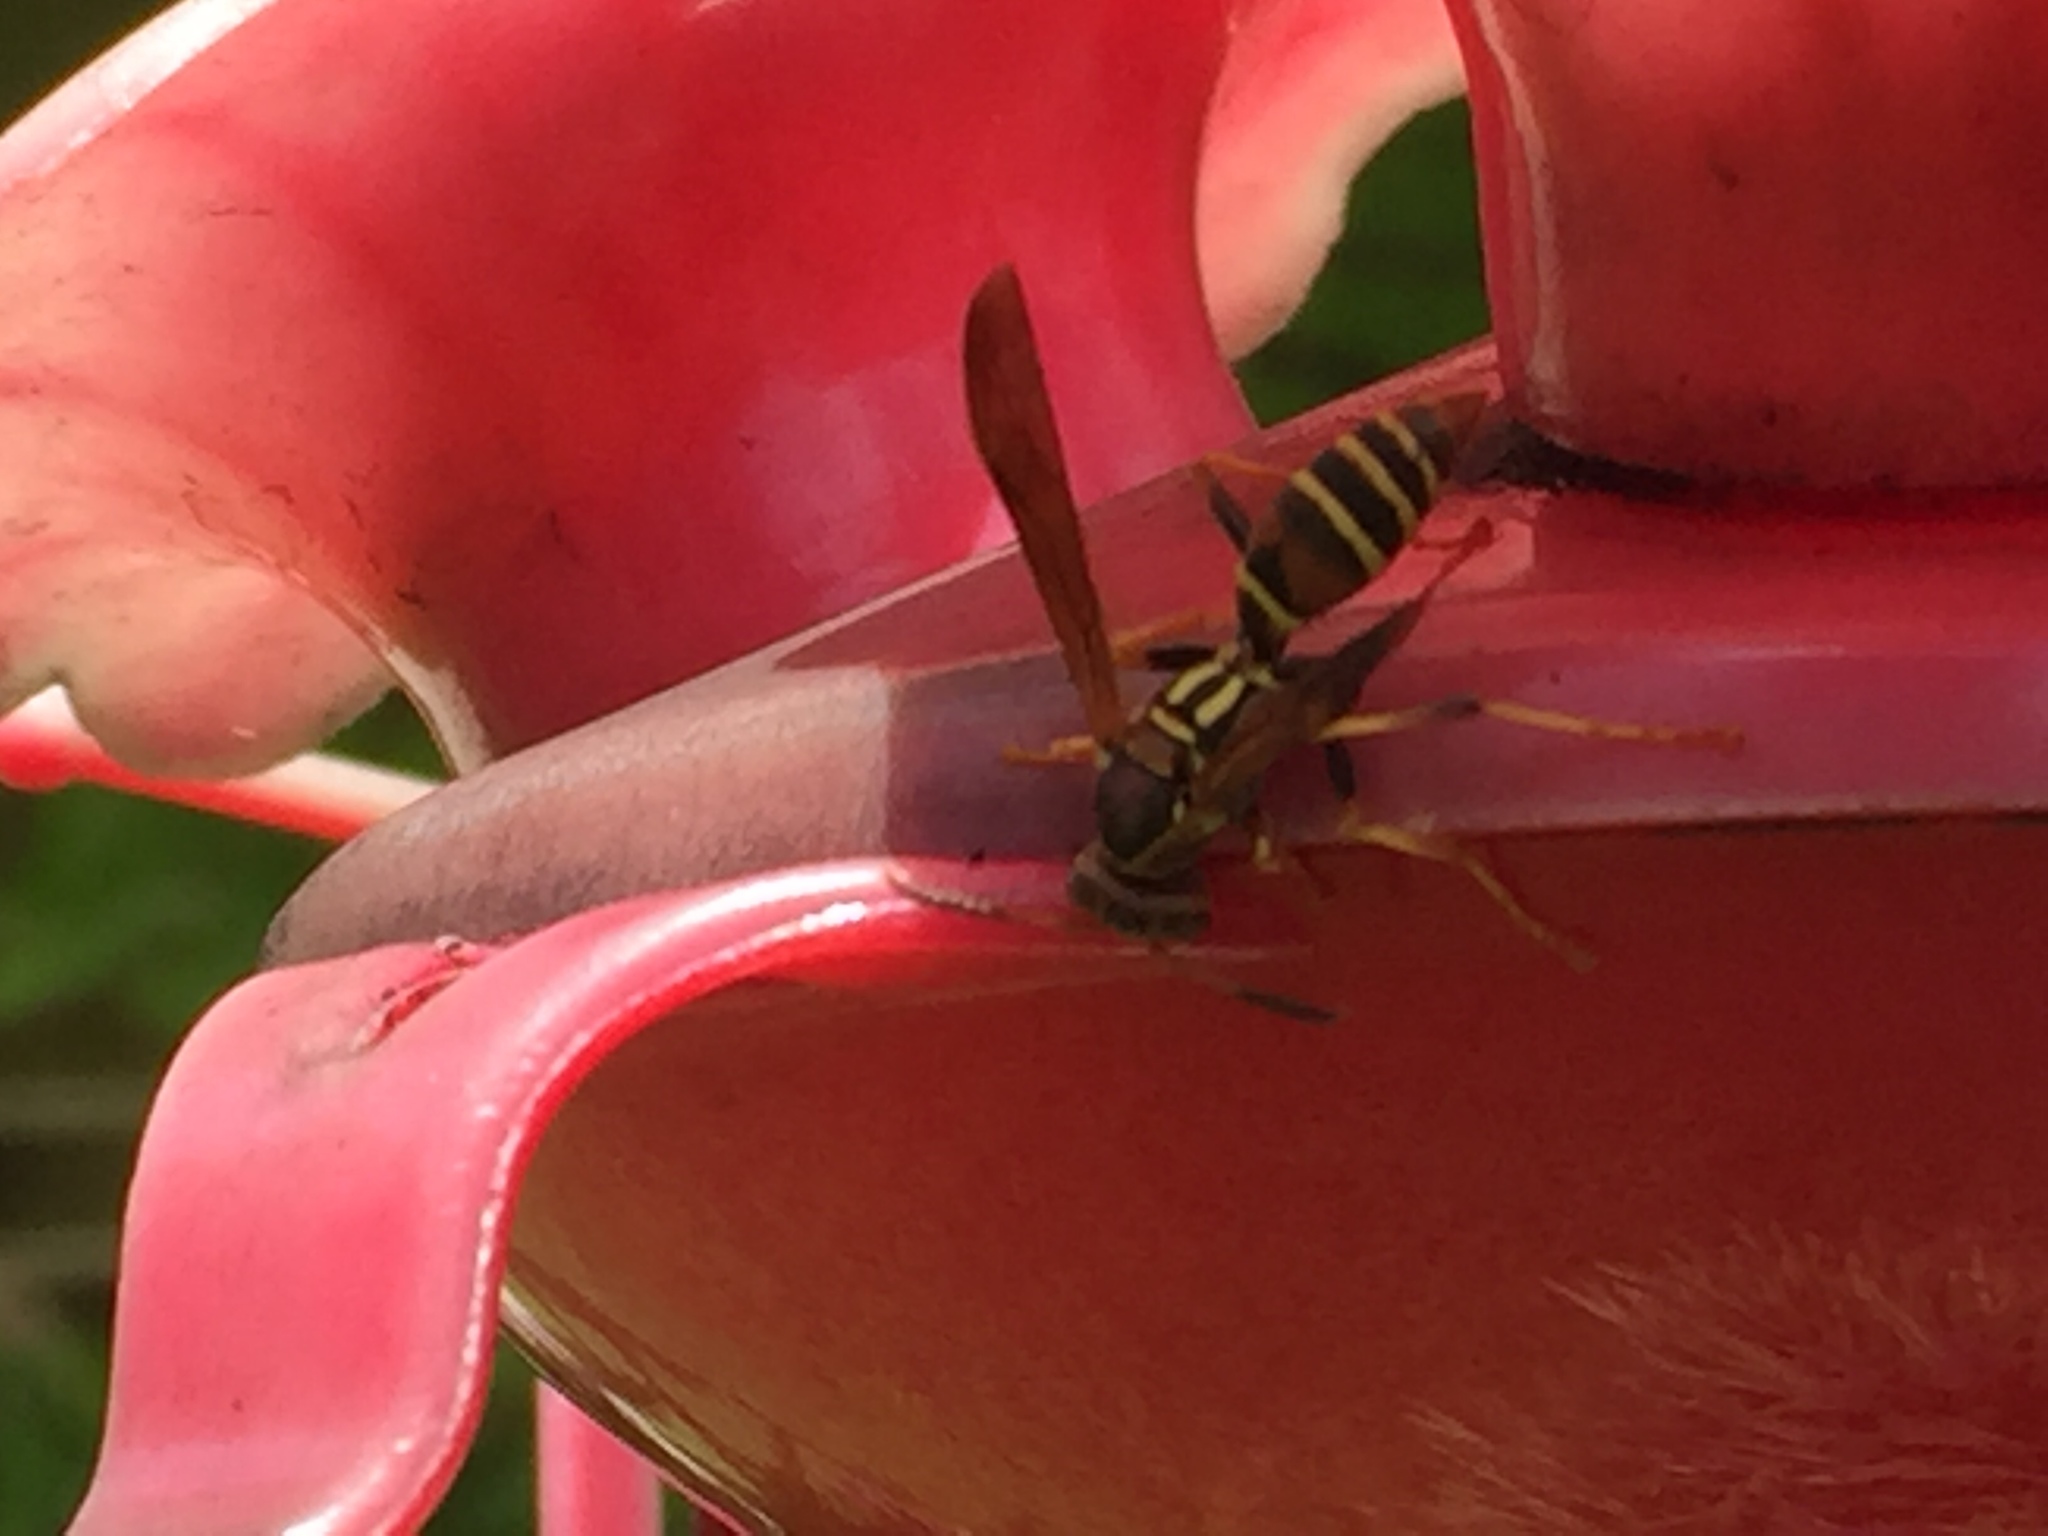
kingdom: Animalia
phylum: Arthropoda
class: Insecta
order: Hymenoptera
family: Eumenidae
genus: Polistes
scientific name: Polistes dorsalis
